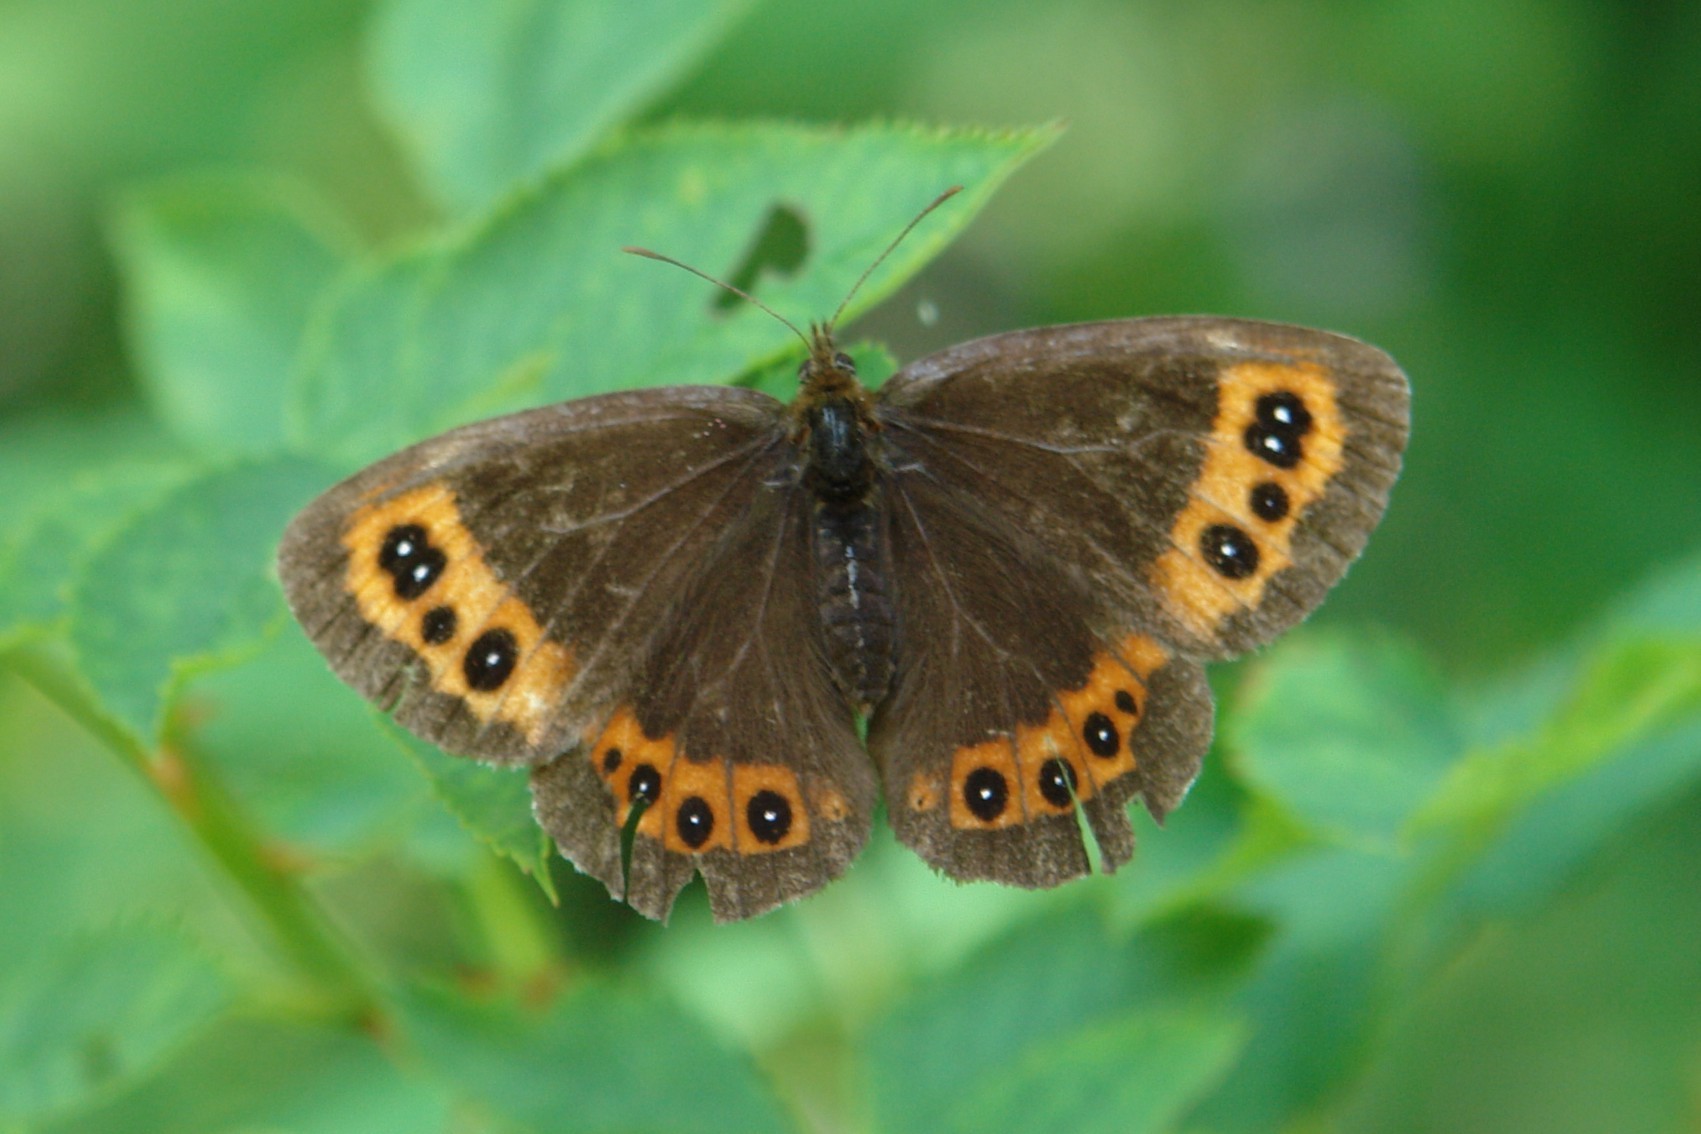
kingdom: Animalia
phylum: Arthropoda
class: Insecta
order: Lepidoptera
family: Nymphalidae
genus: Erebia
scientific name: Erebia ligea
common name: Arran brown
